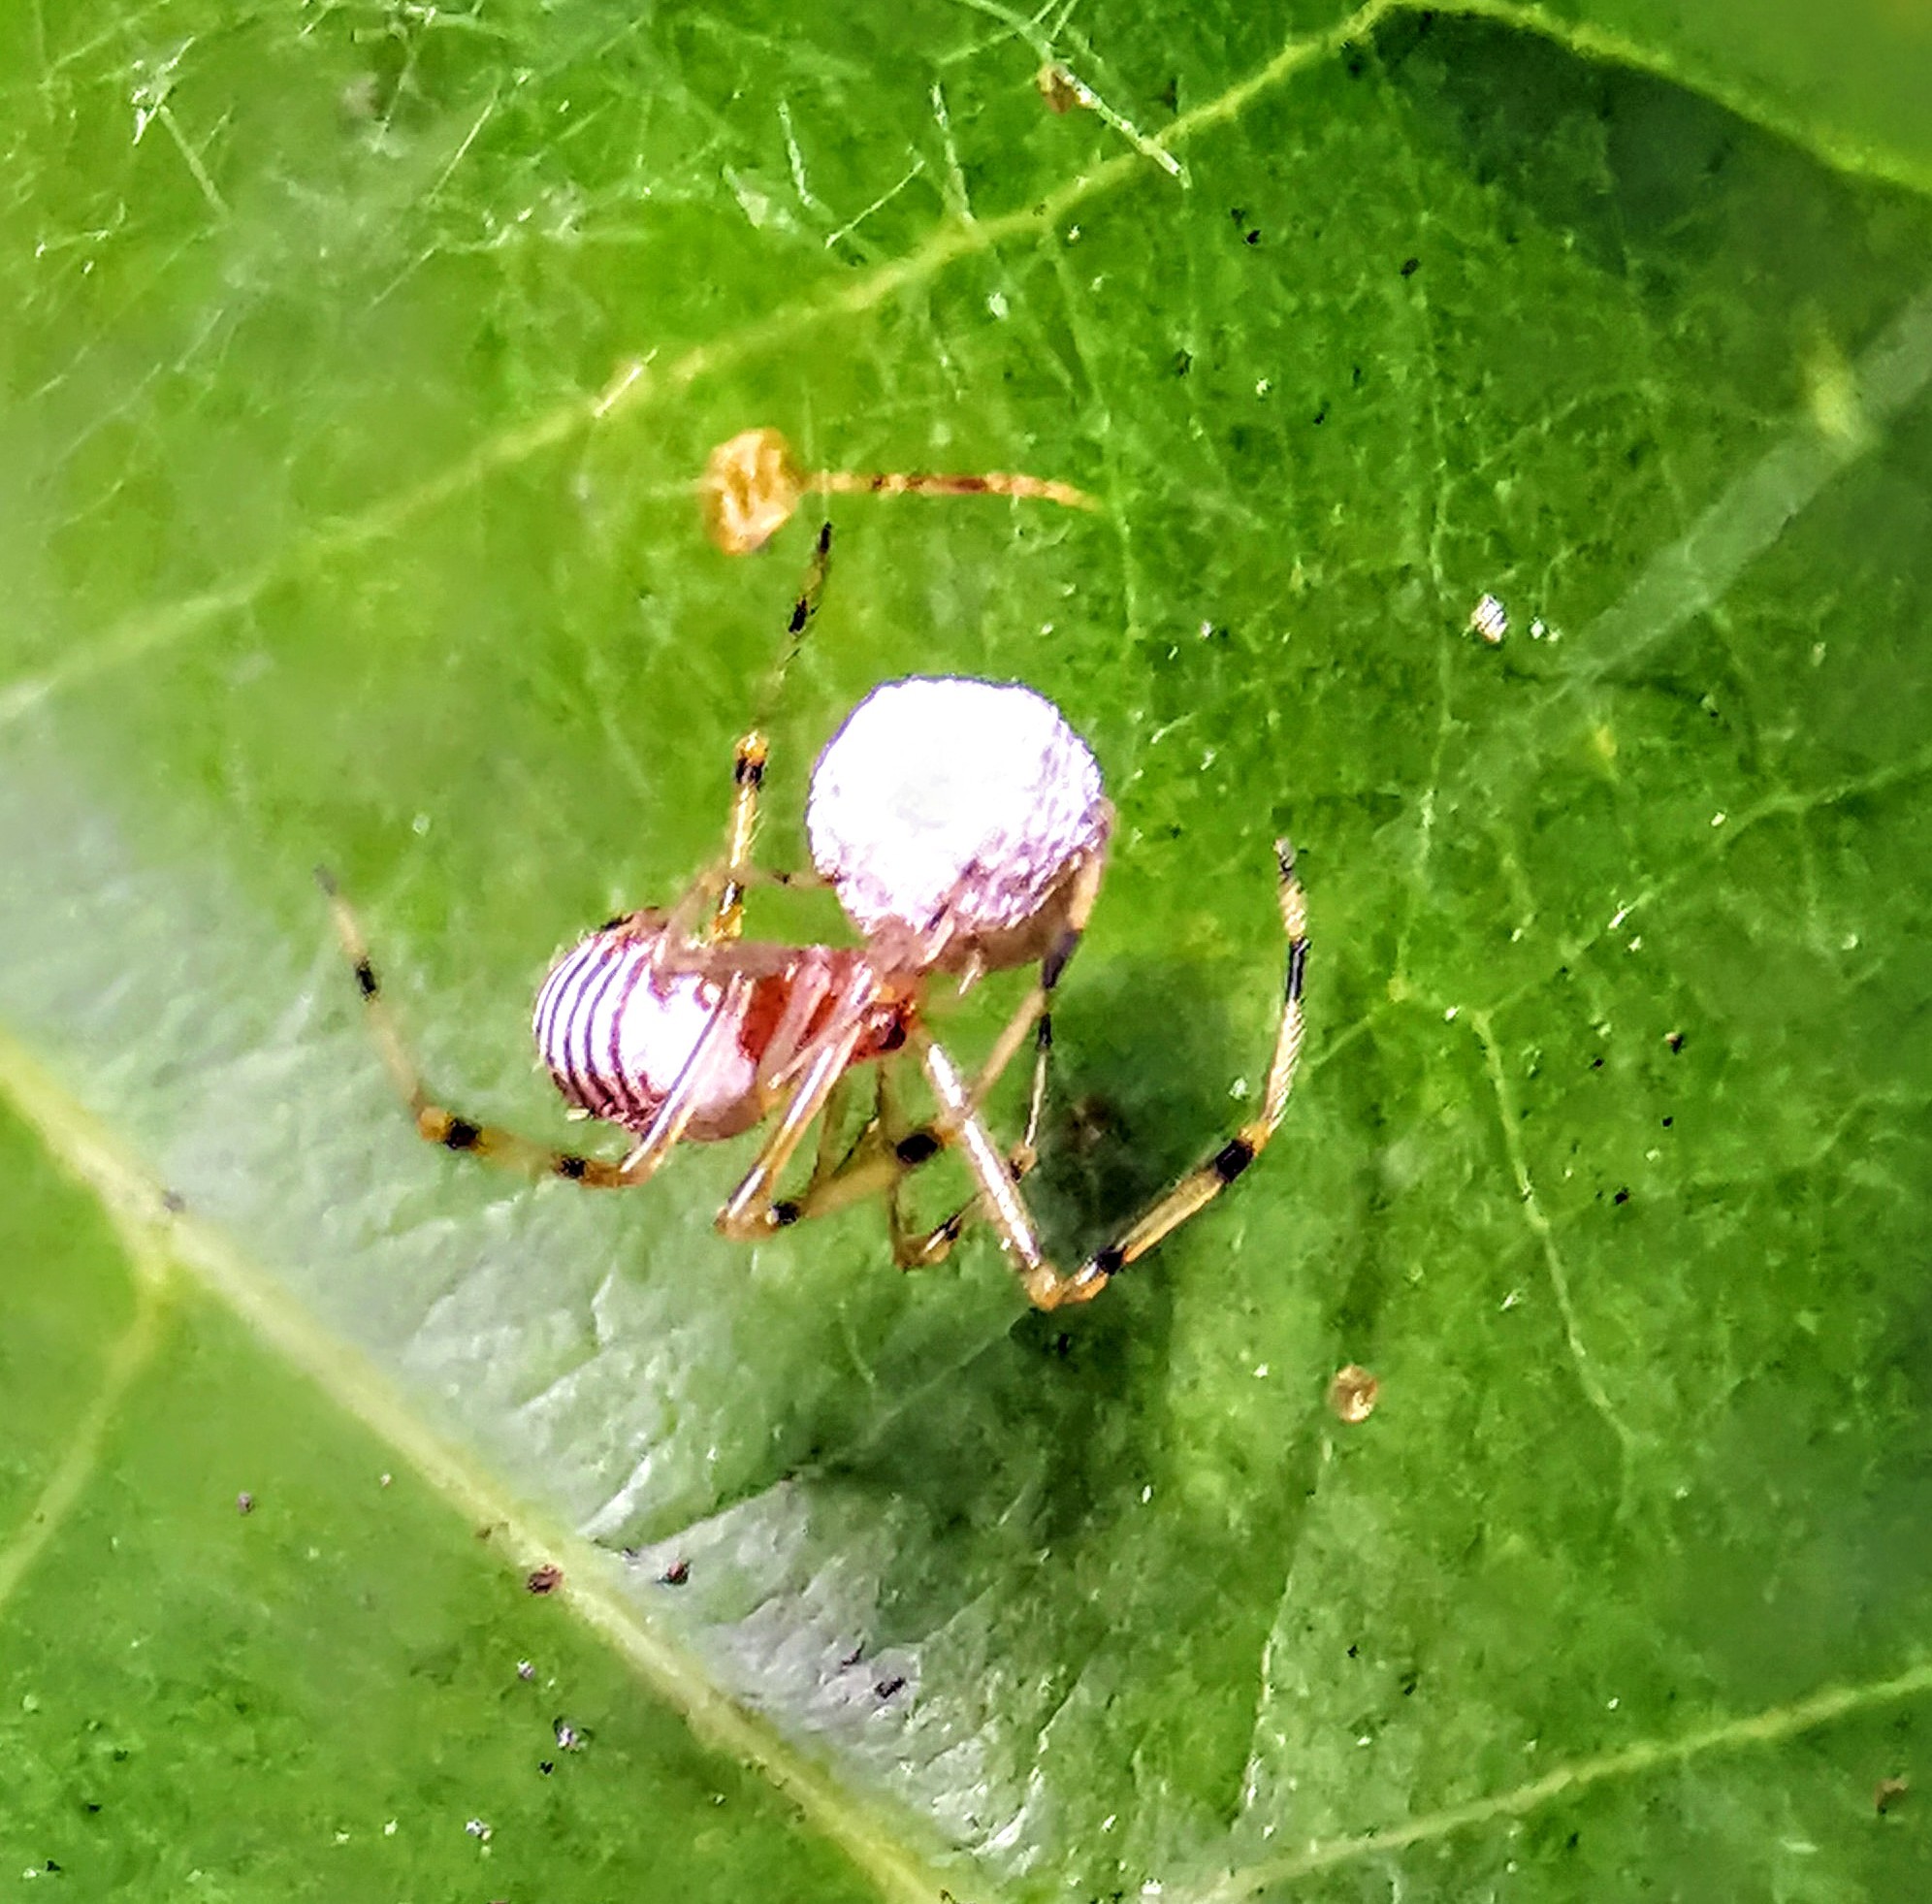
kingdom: Animalia
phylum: Arthropoda
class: Arachnida
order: Araneae
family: Theridiidae
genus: Theridion
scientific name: Theridion zonulatum
